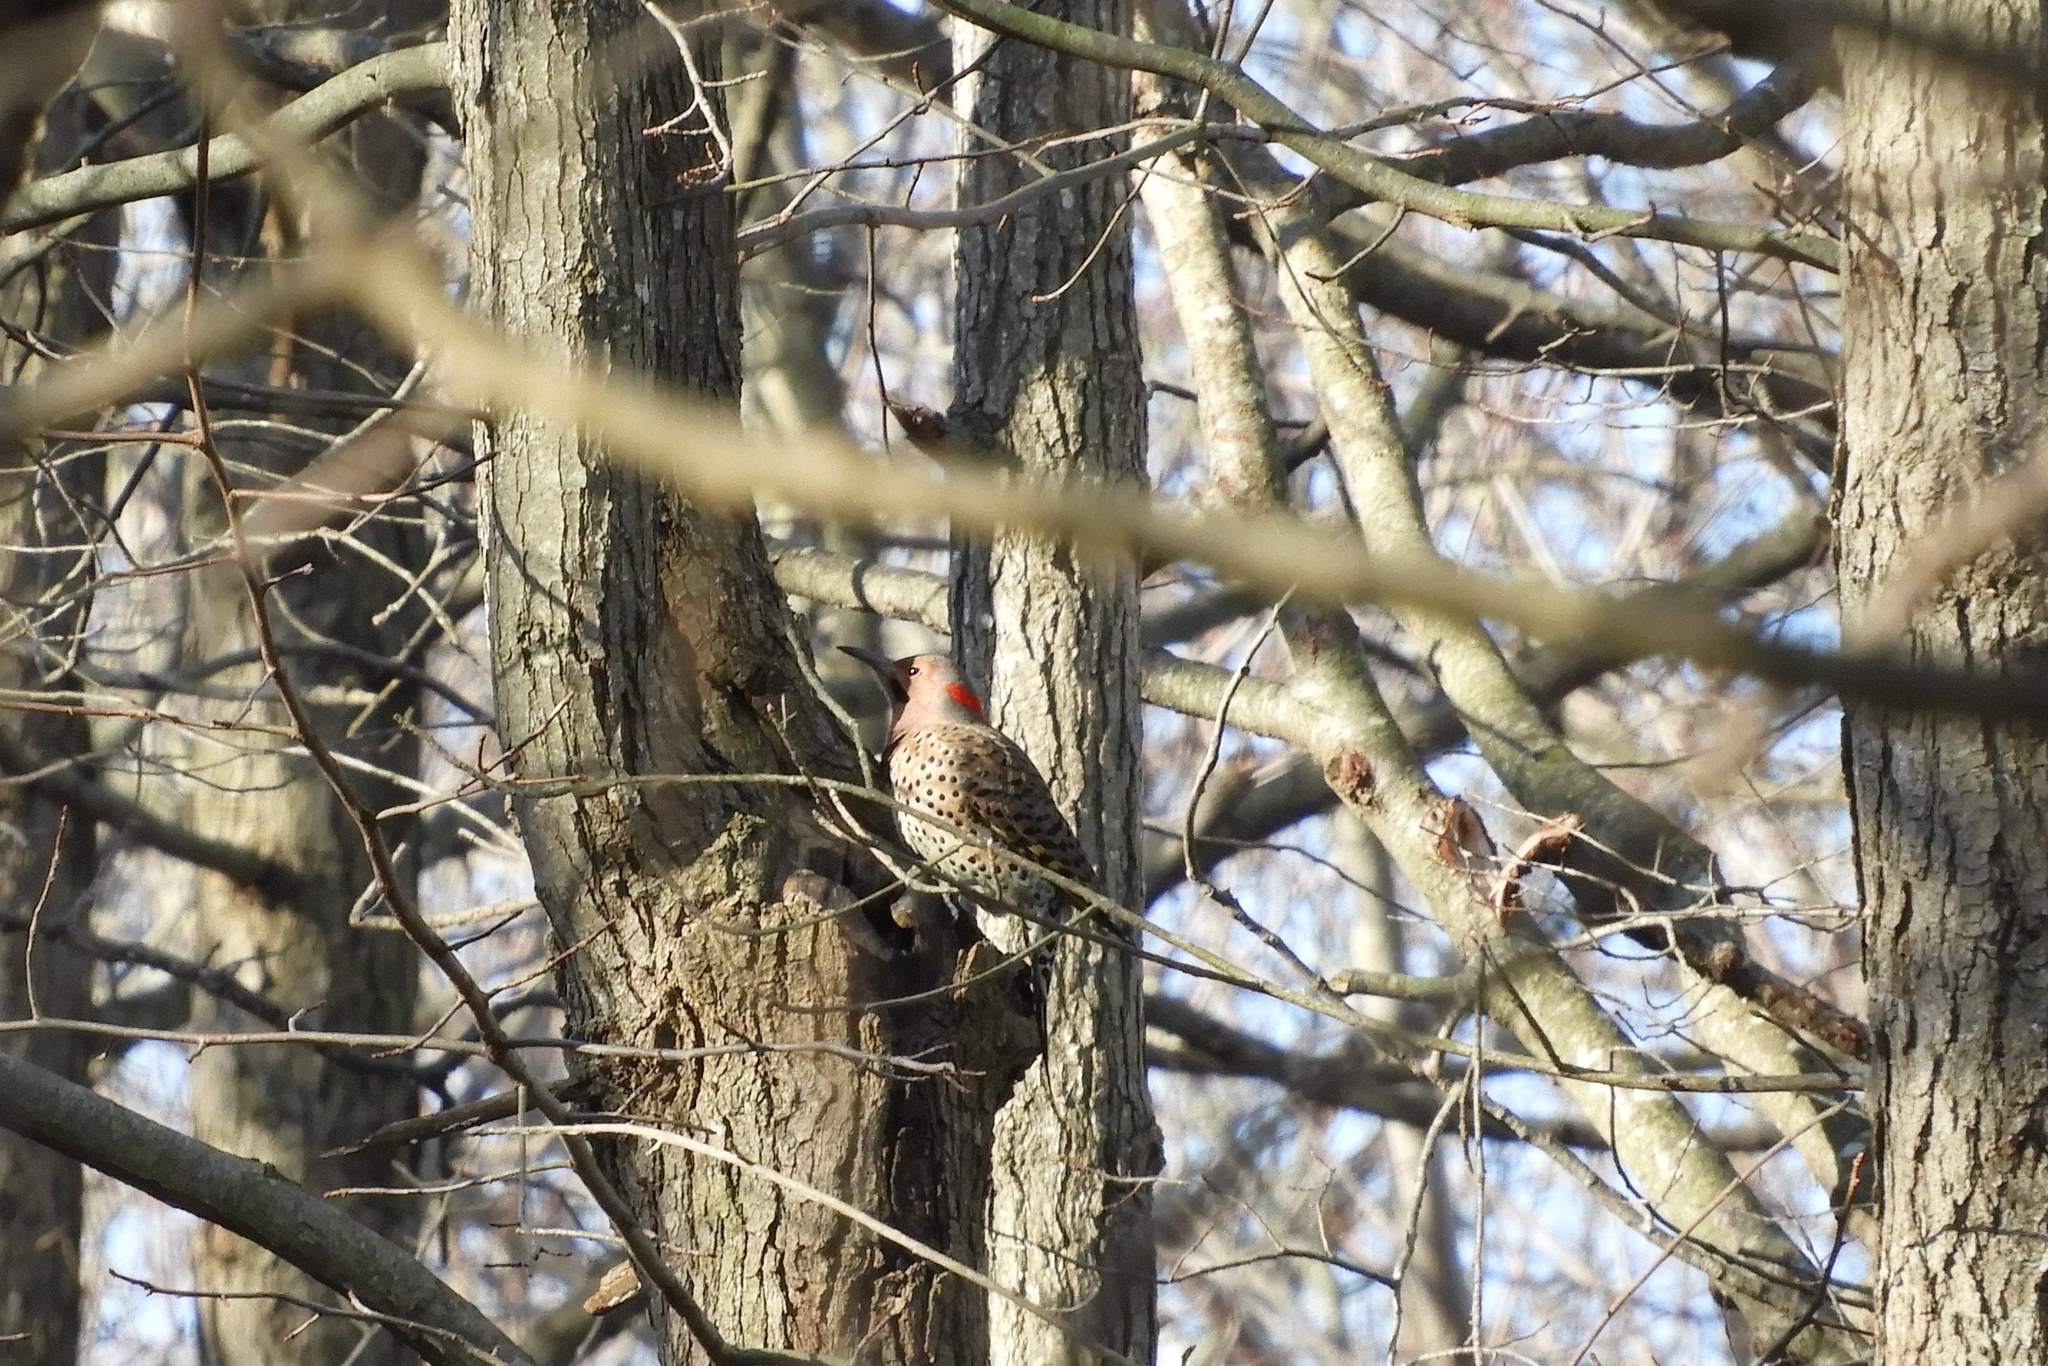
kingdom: Animalia
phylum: Chordata
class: Aves
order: Piciformes
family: Picidae
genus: Colaptes
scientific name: Colaptes auratus
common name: Northern flicker
